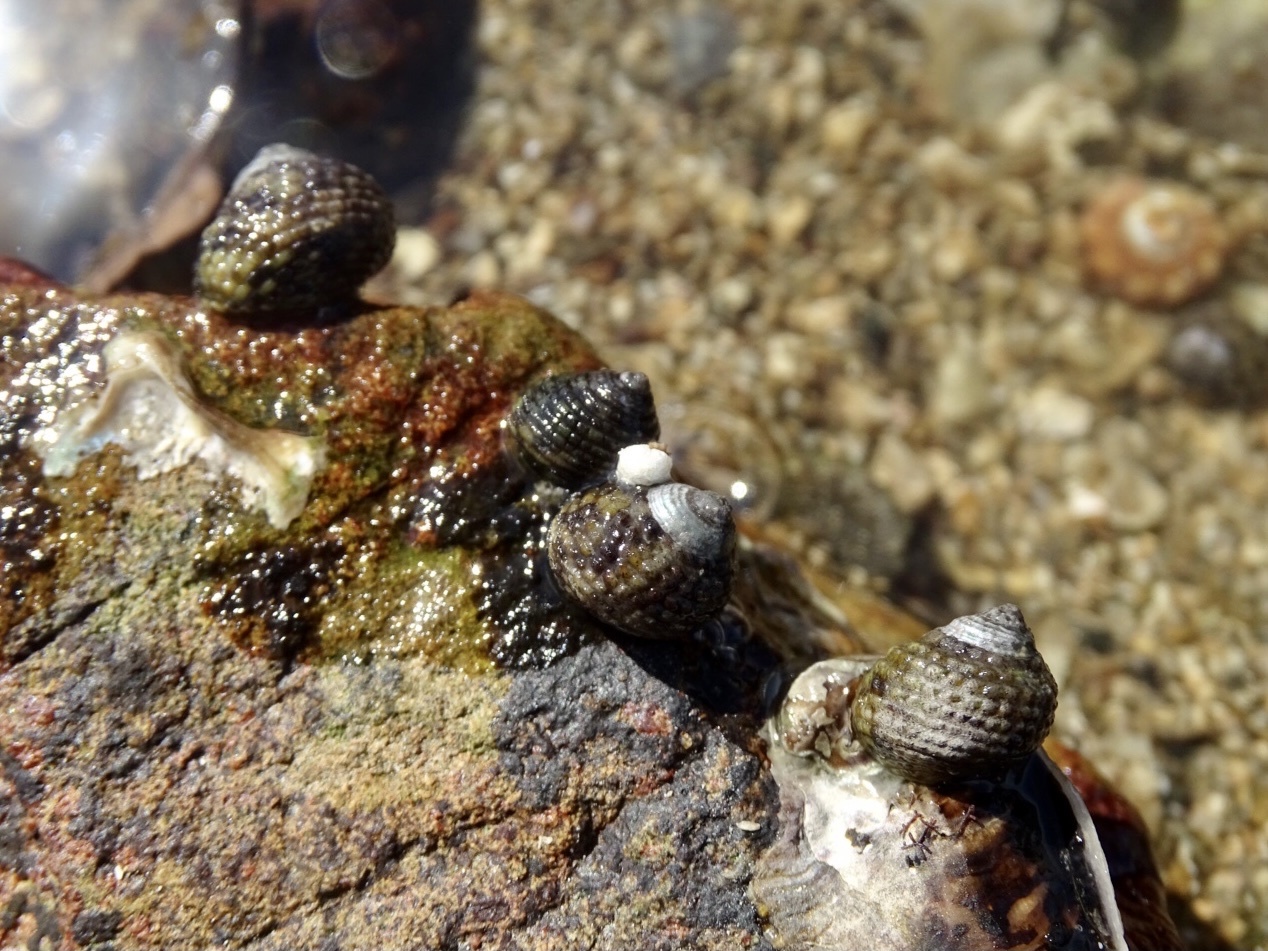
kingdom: Animalia
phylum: Mollusca
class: Gastropoda
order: Trochida
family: Trochidae
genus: Monodonta
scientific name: Monodonta labio
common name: Labio
